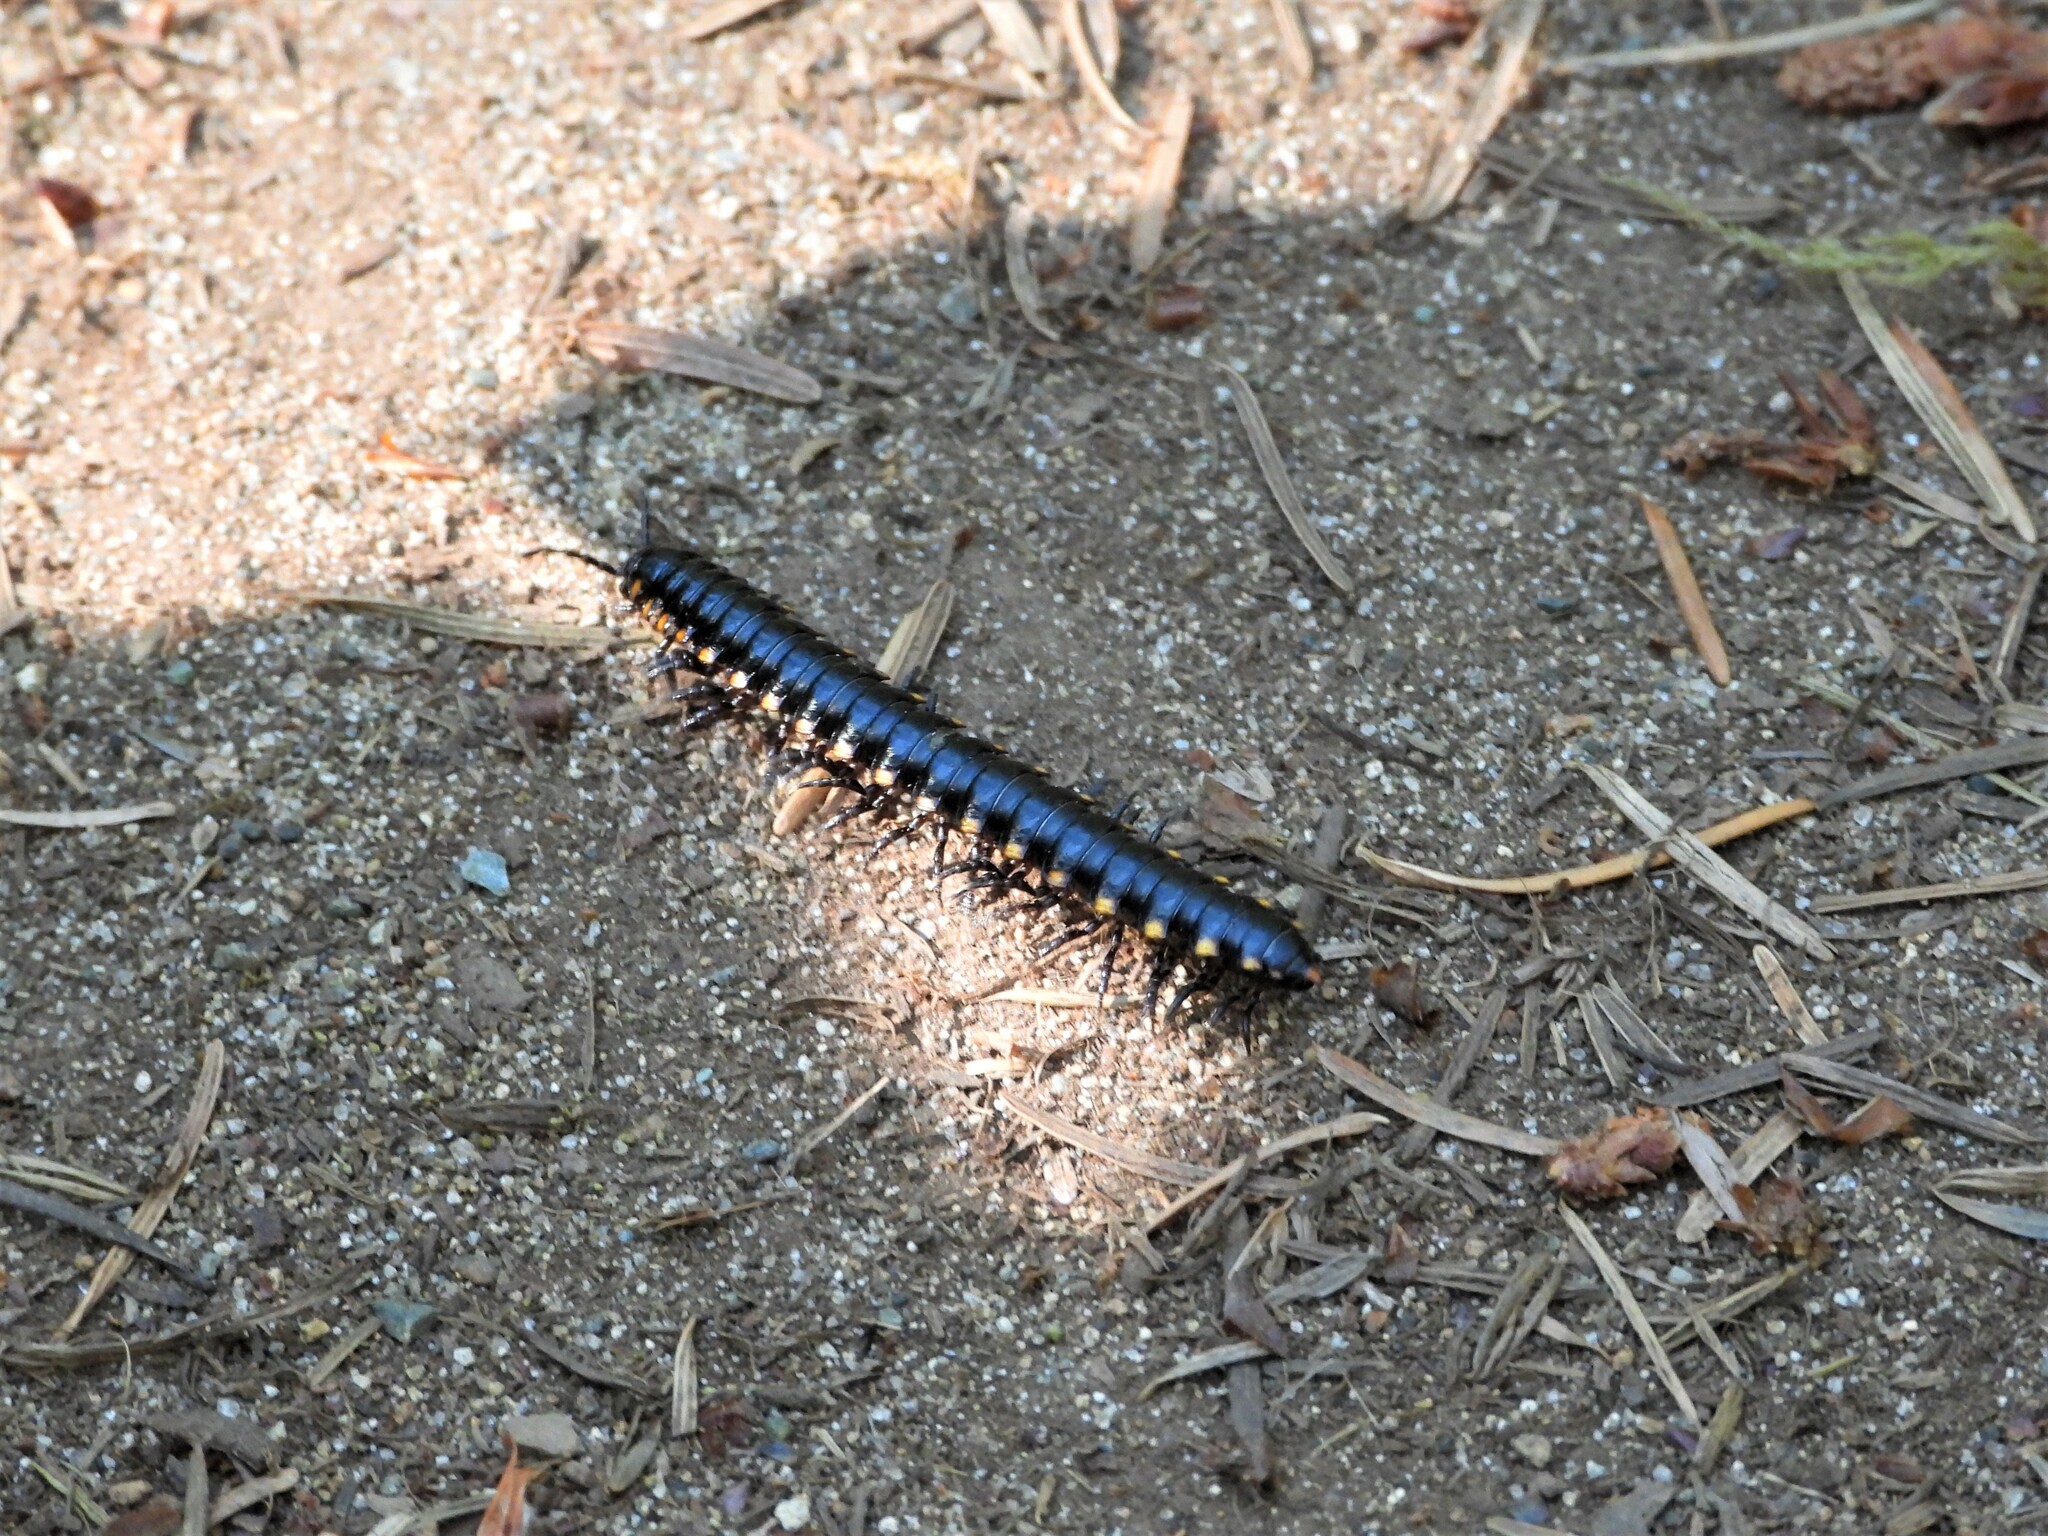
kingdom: Animalia
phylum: Arthropoda
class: Diplopoda
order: Polydesmida
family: Xystodesmidae
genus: Harpaphe
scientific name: Harpaphe haydeniana
